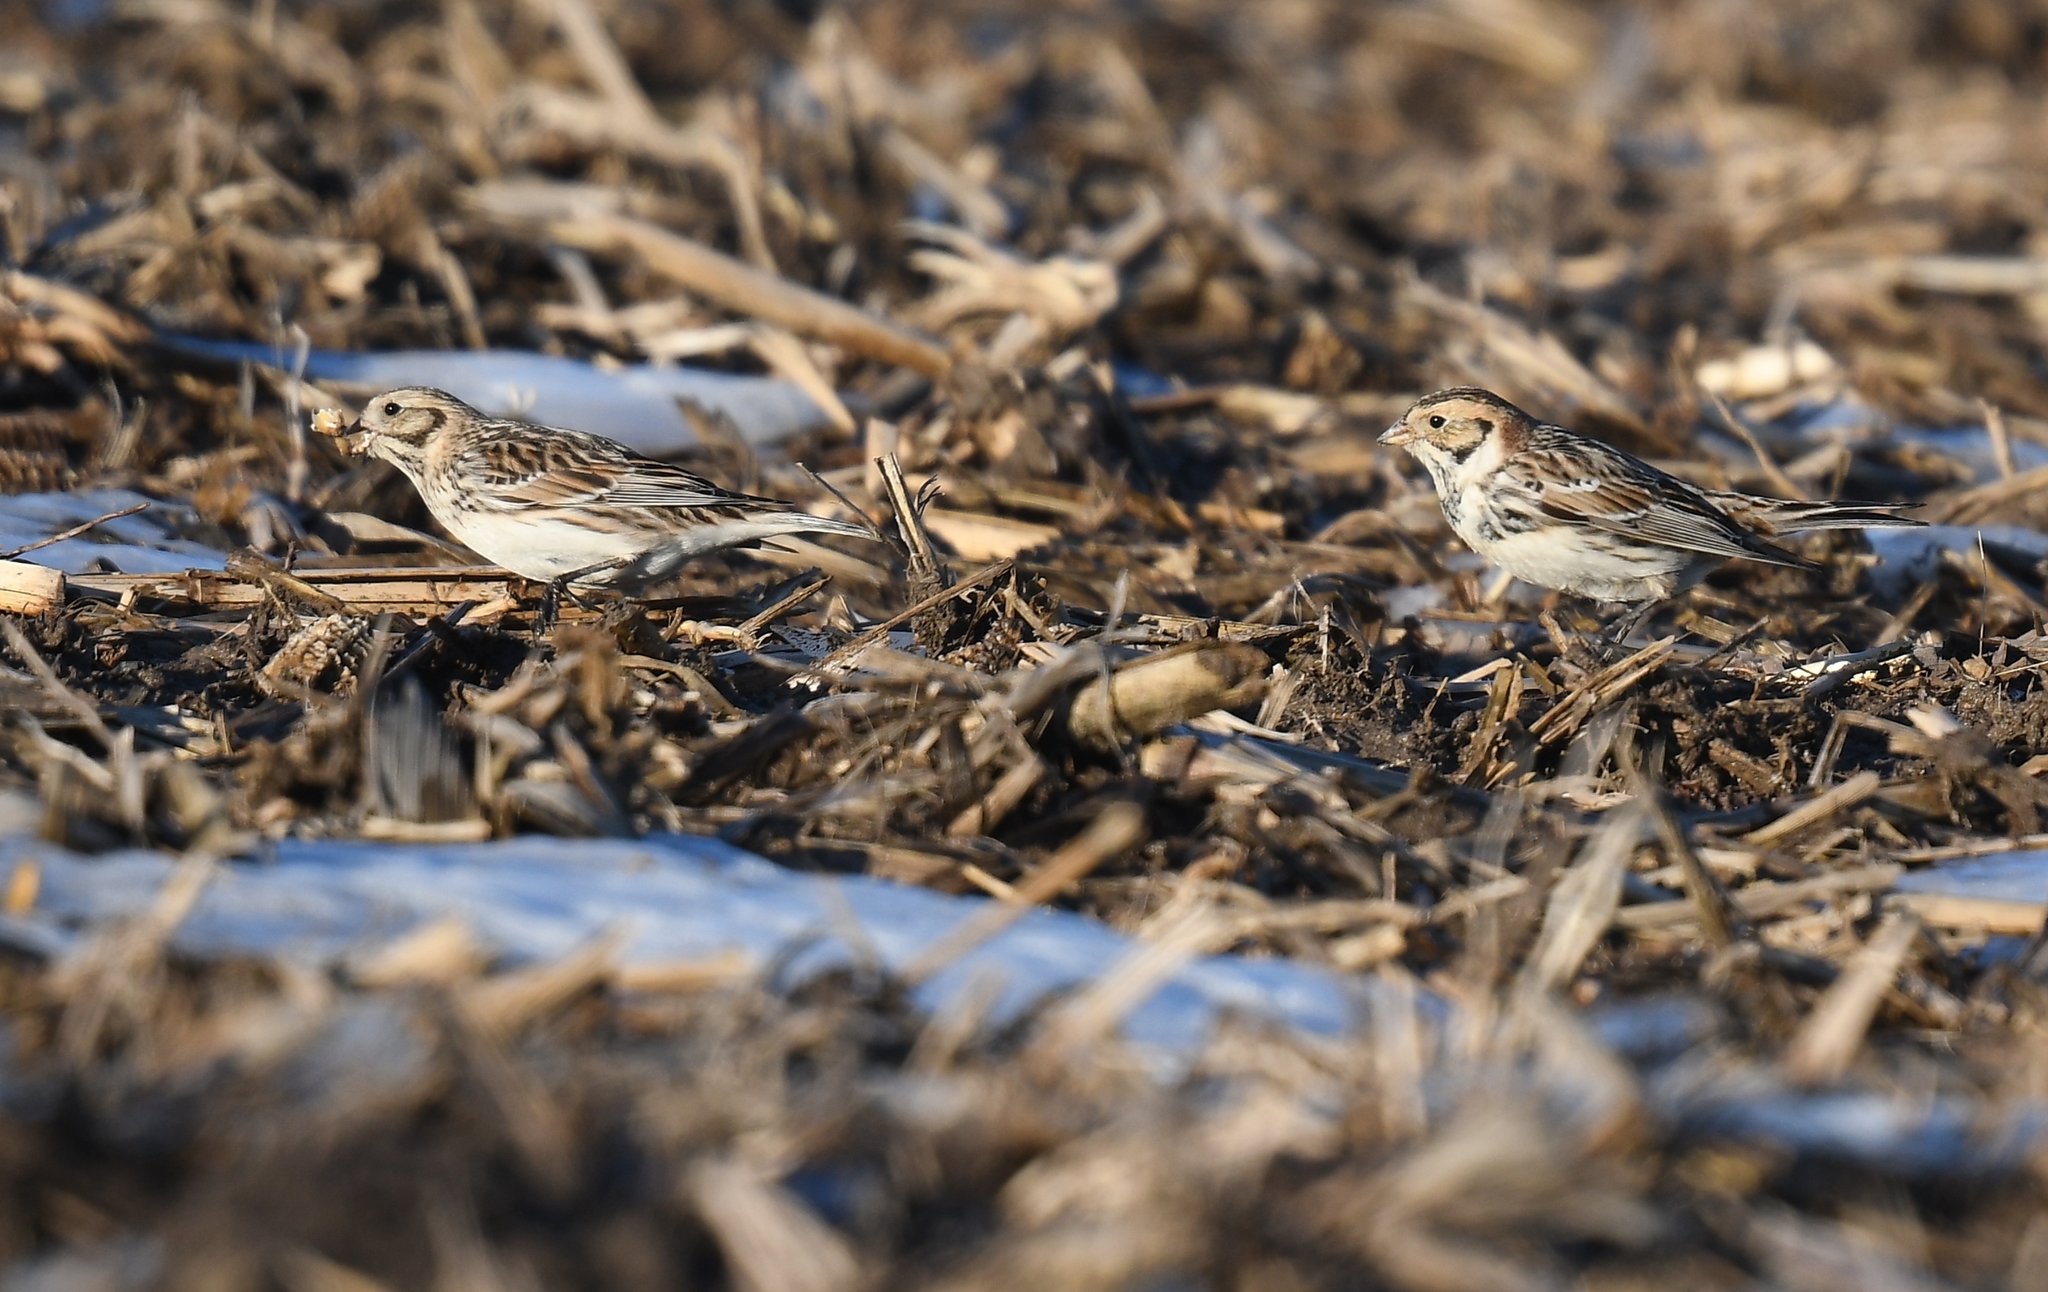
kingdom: Animalia
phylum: Chordata
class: Aves
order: Passeriformes
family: Calcariidae
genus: Calcarius
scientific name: Calcarius lapponicus
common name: Lapland longspur
